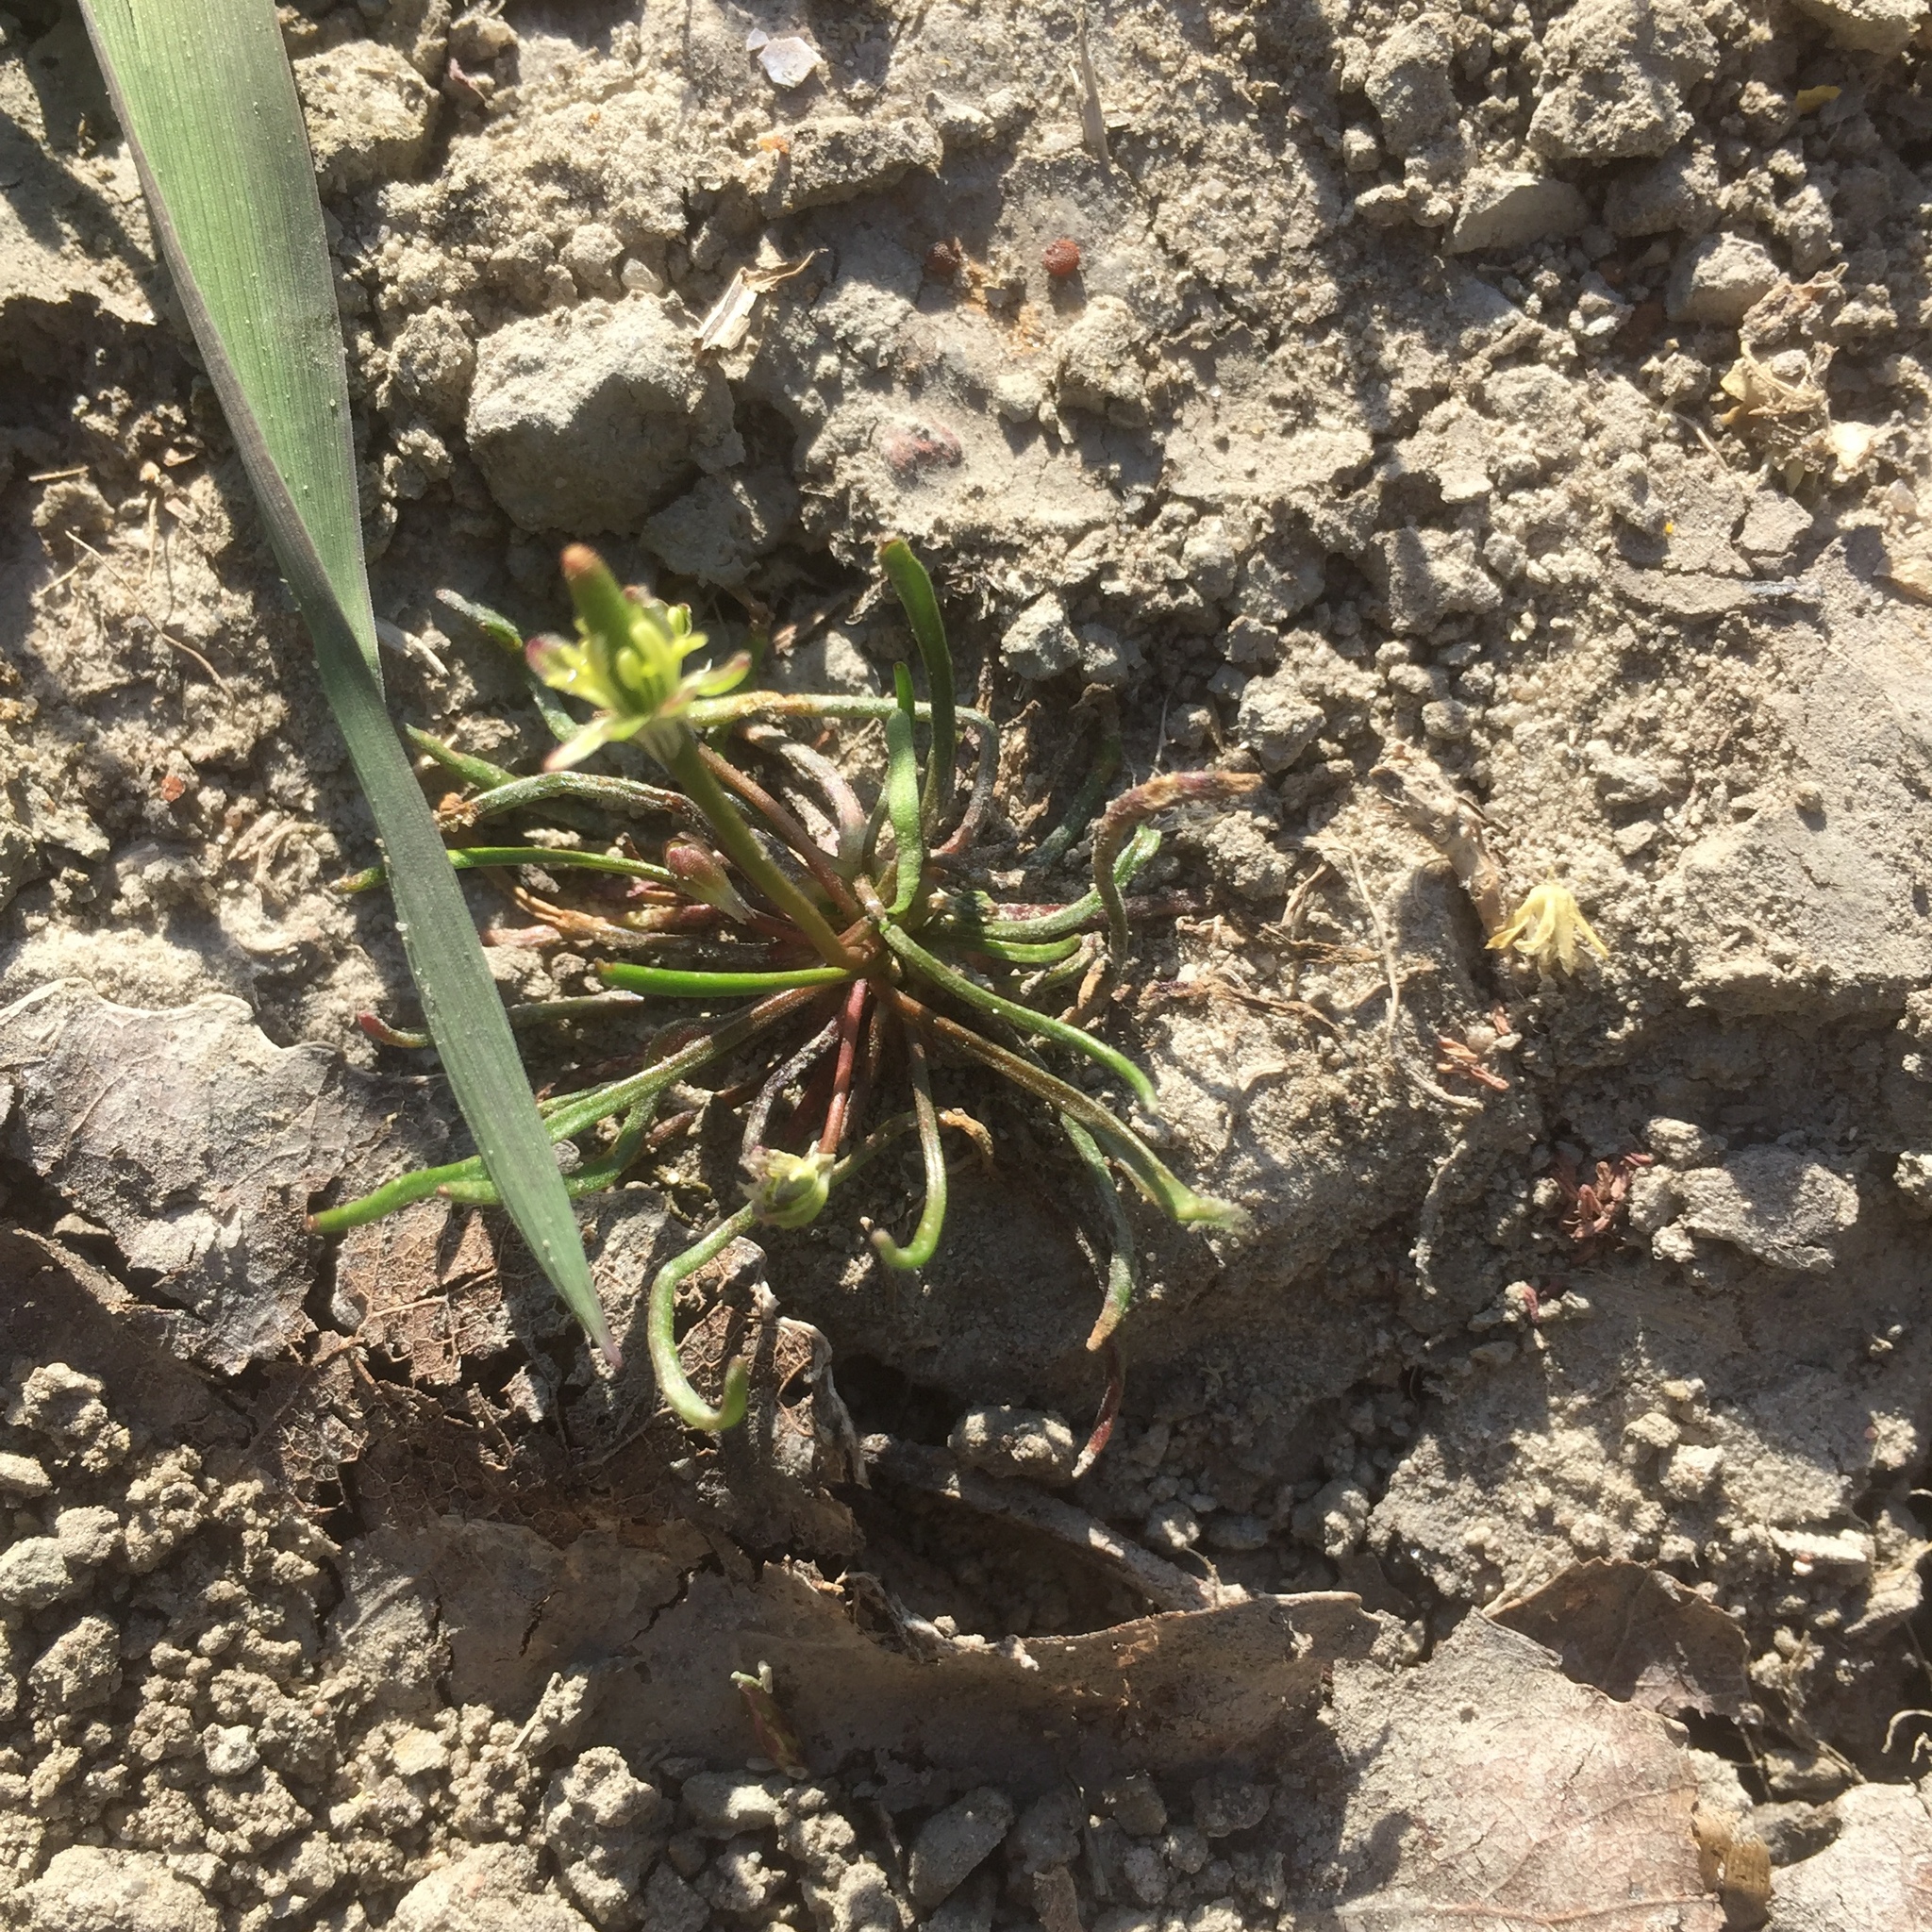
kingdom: Plantae
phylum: Tracheophyta
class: Magnoliopsida
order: Ranunculales
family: Ranunculaceae
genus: Myosurus
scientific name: Myosurus minimus
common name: Mousetail
